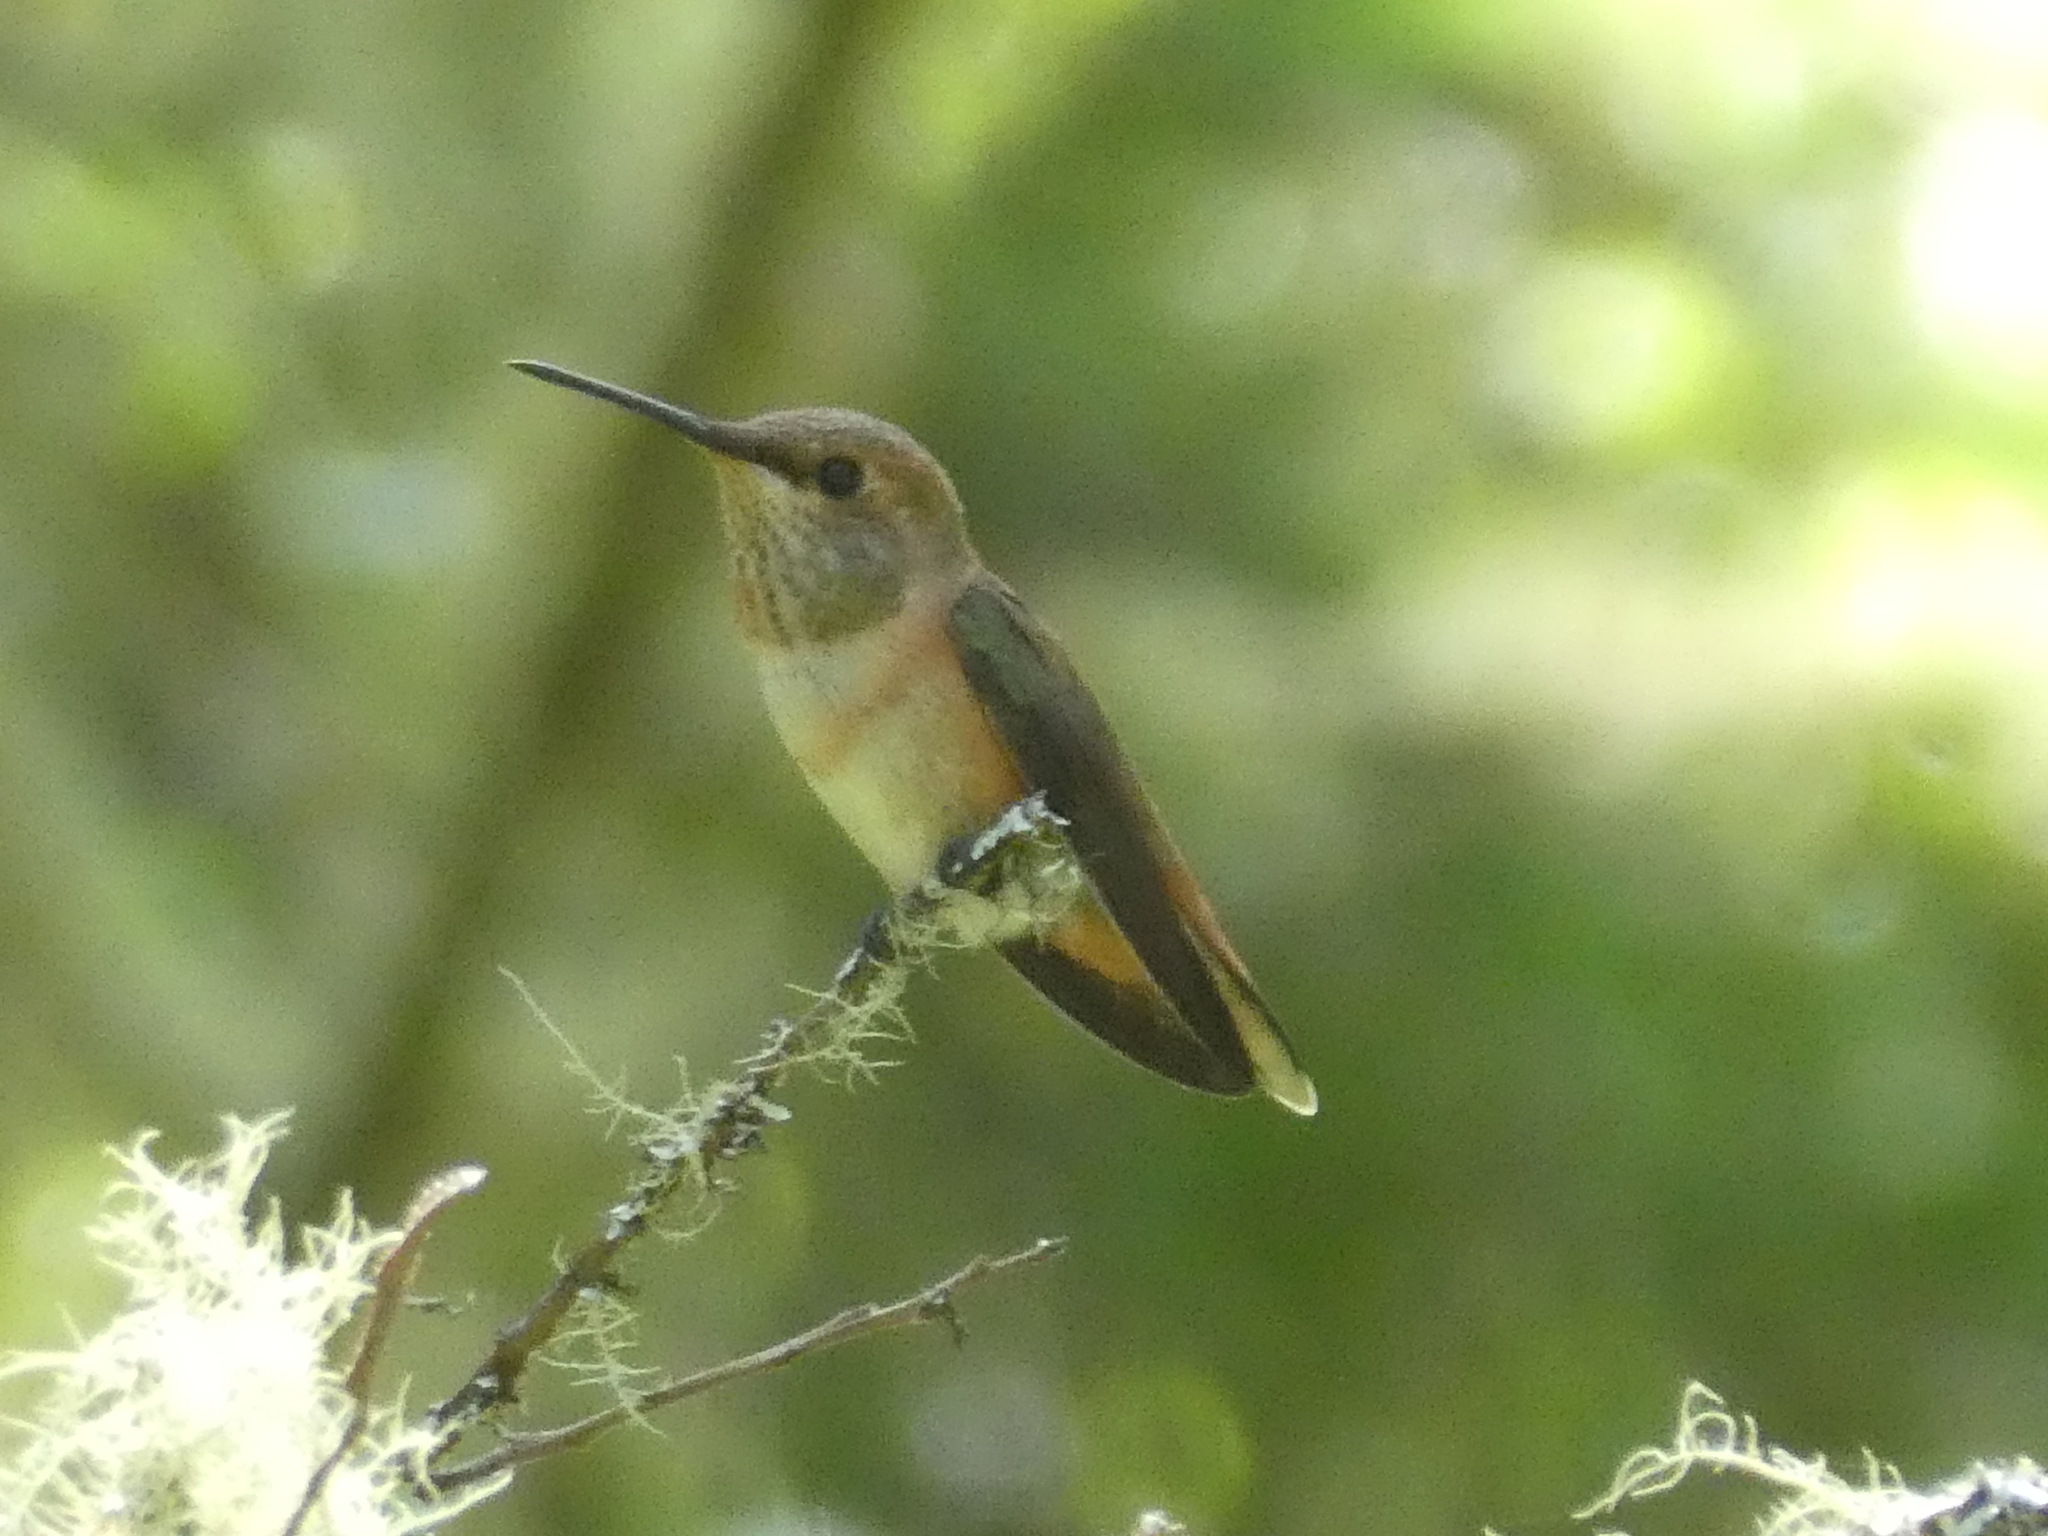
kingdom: Animalia
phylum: Chordata
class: Aves
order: Apodiformes
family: Trochilidae
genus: Selasphorus
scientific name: Selasphorus sasin
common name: Allen's hummingbird
